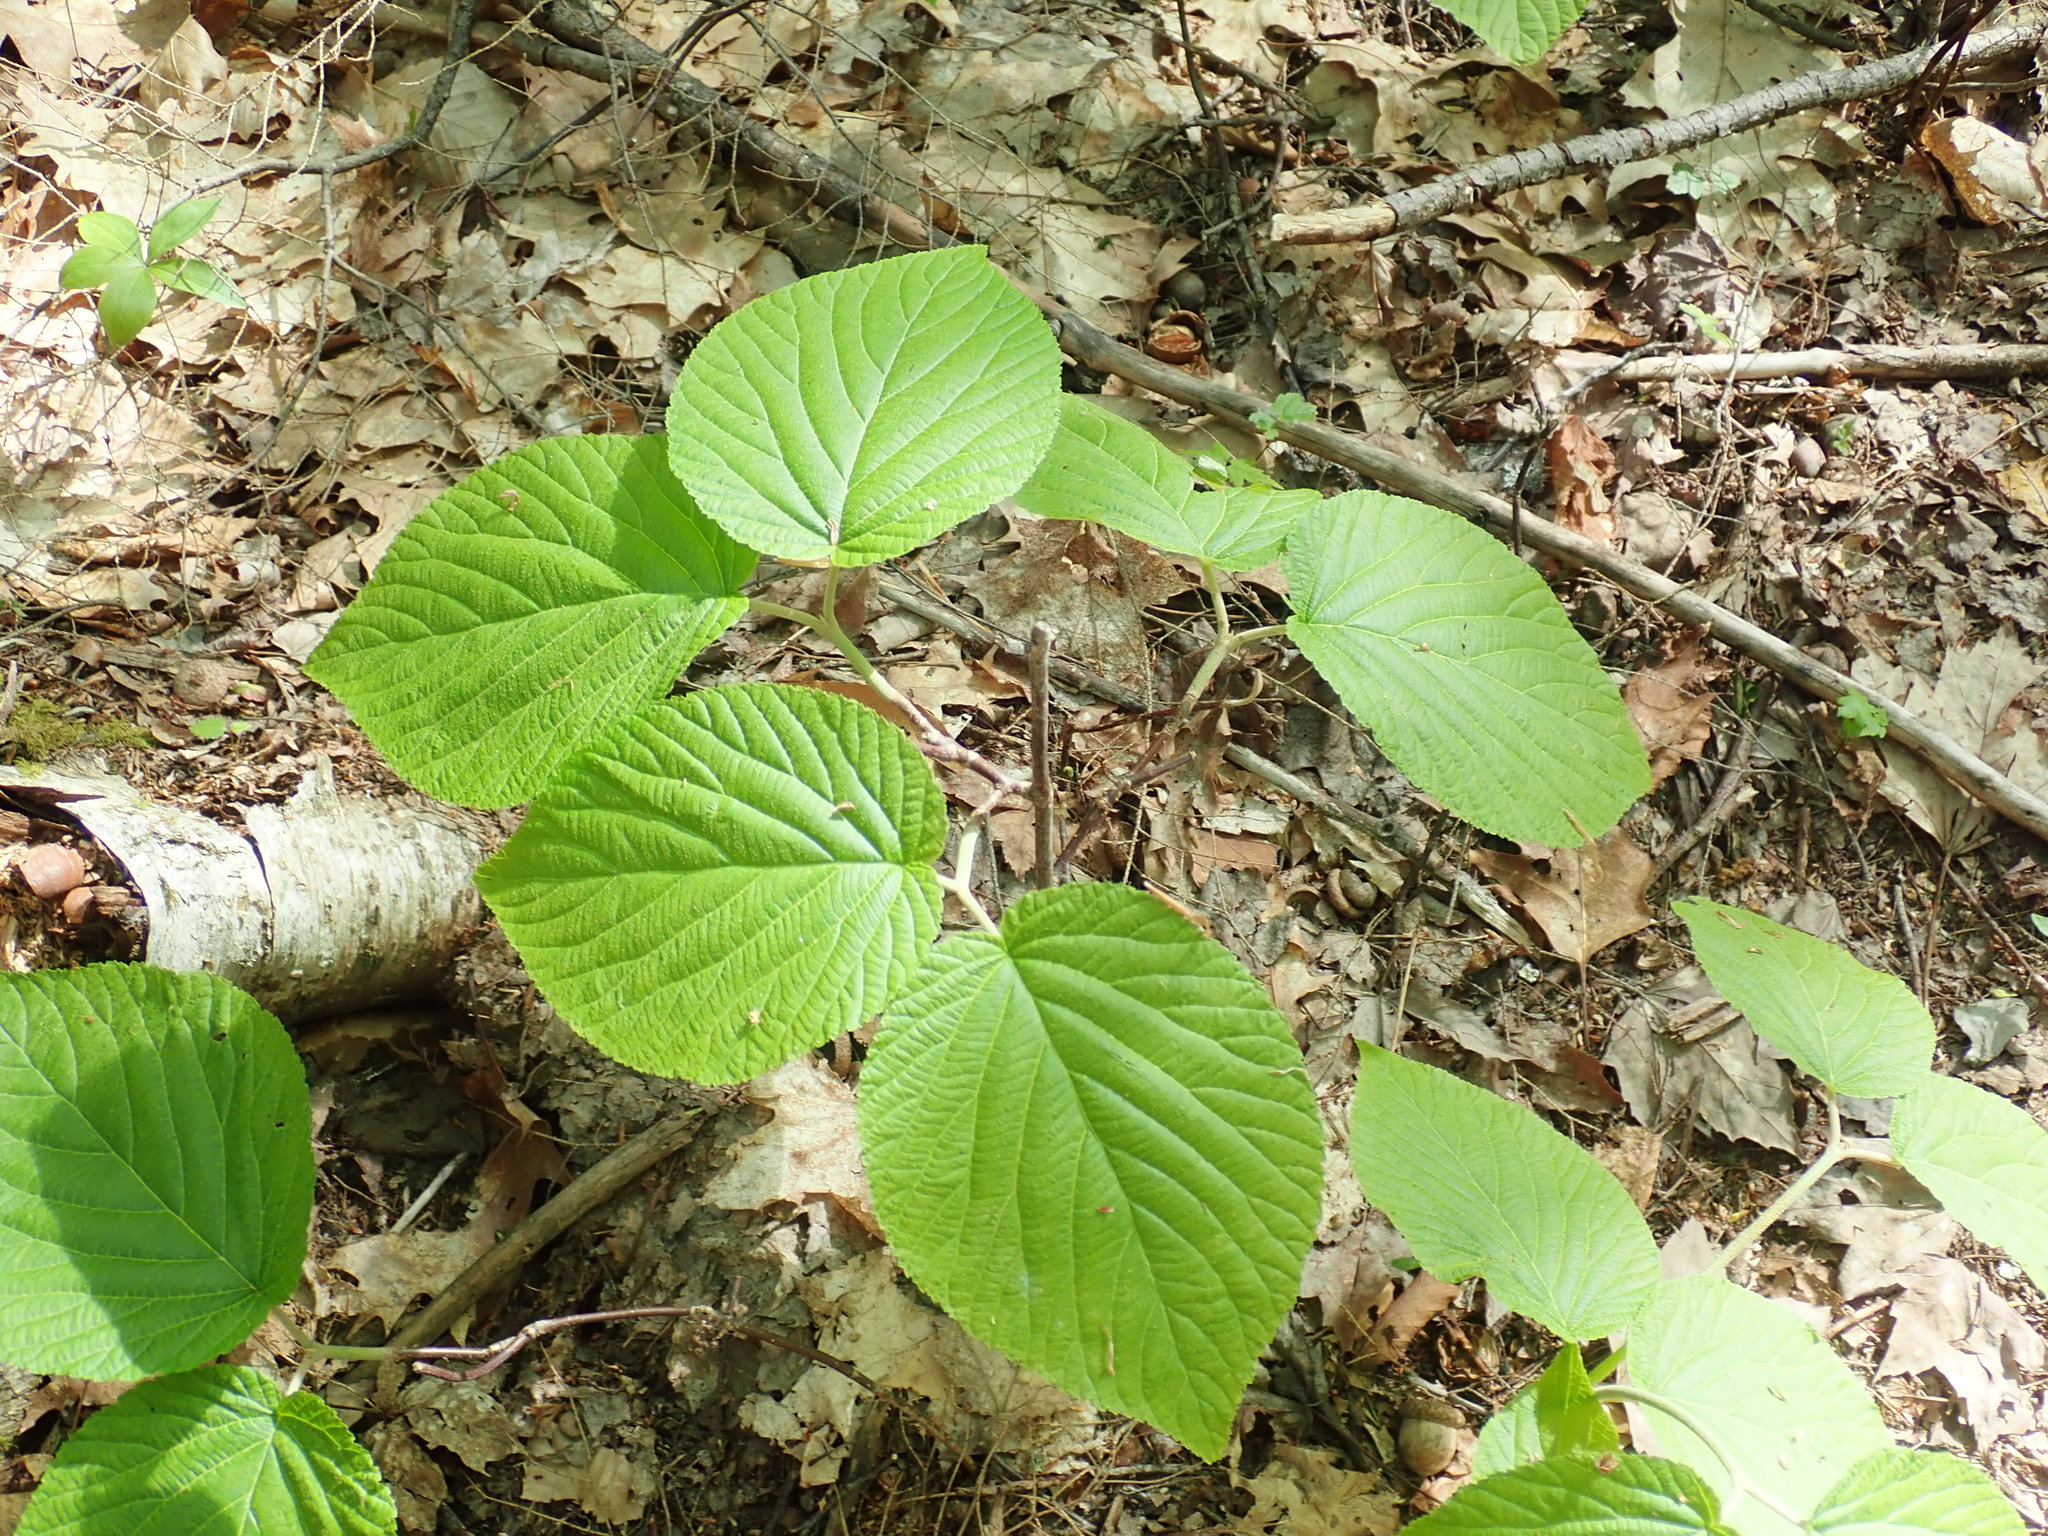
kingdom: Plantae
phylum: Tracheophyta
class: Magnoliopsida
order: Dipsacales
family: Viburnaceae
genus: Viburnum
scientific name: Viburnum lantanoides
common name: Hobblebush
